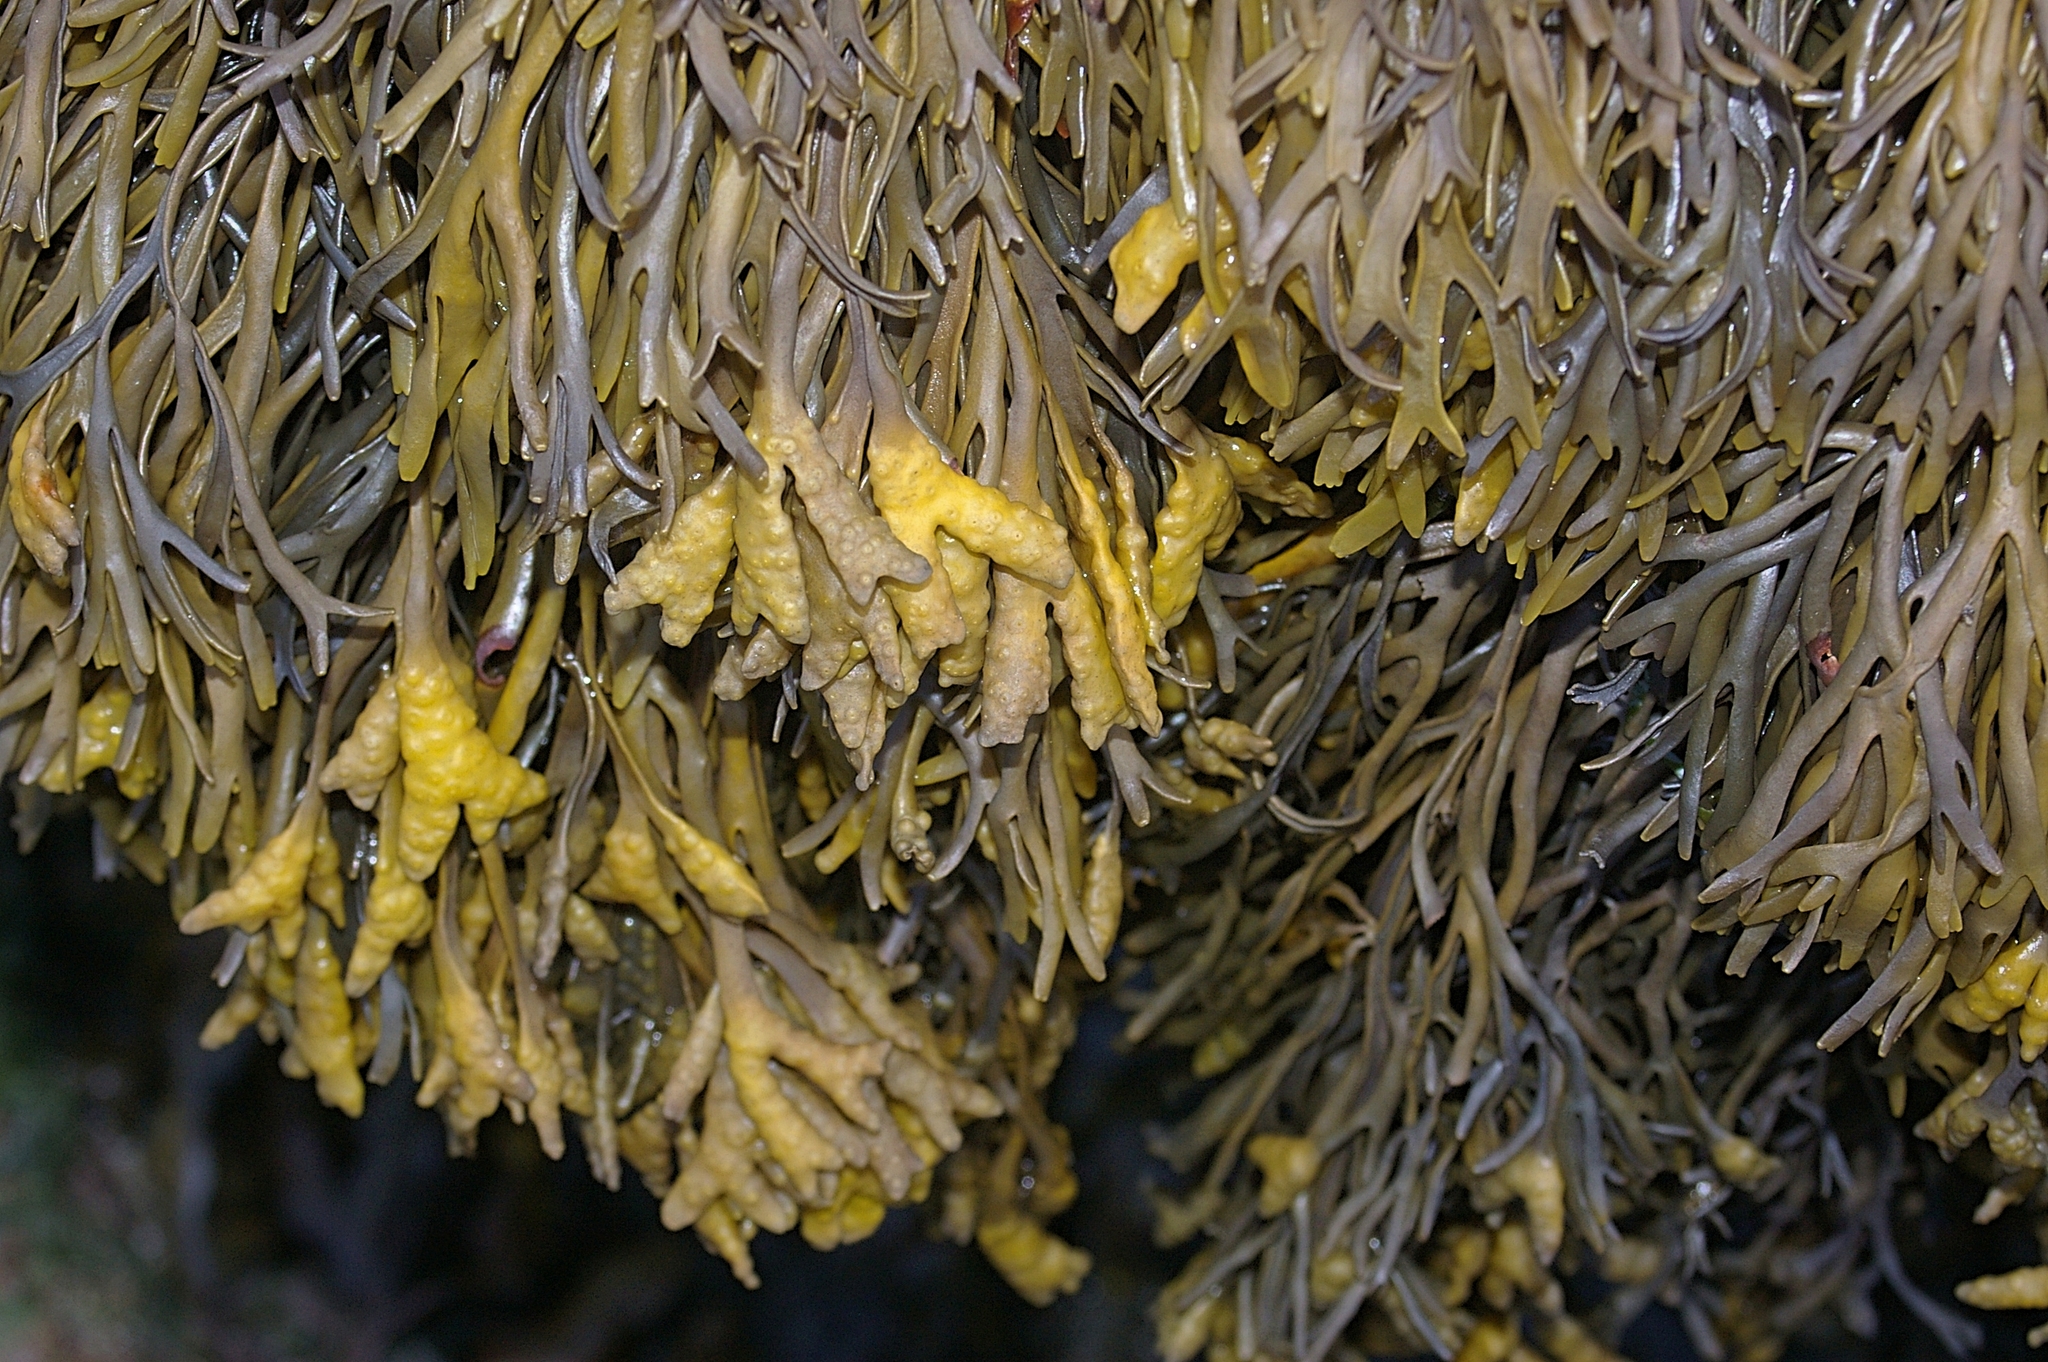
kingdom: Chromista
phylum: Ochrophyta
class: Phaeophyceae
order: Fucales
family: Fucaceae
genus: Ascophyllum
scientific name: Ascophyllum nodosum
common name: Knotted wrack
